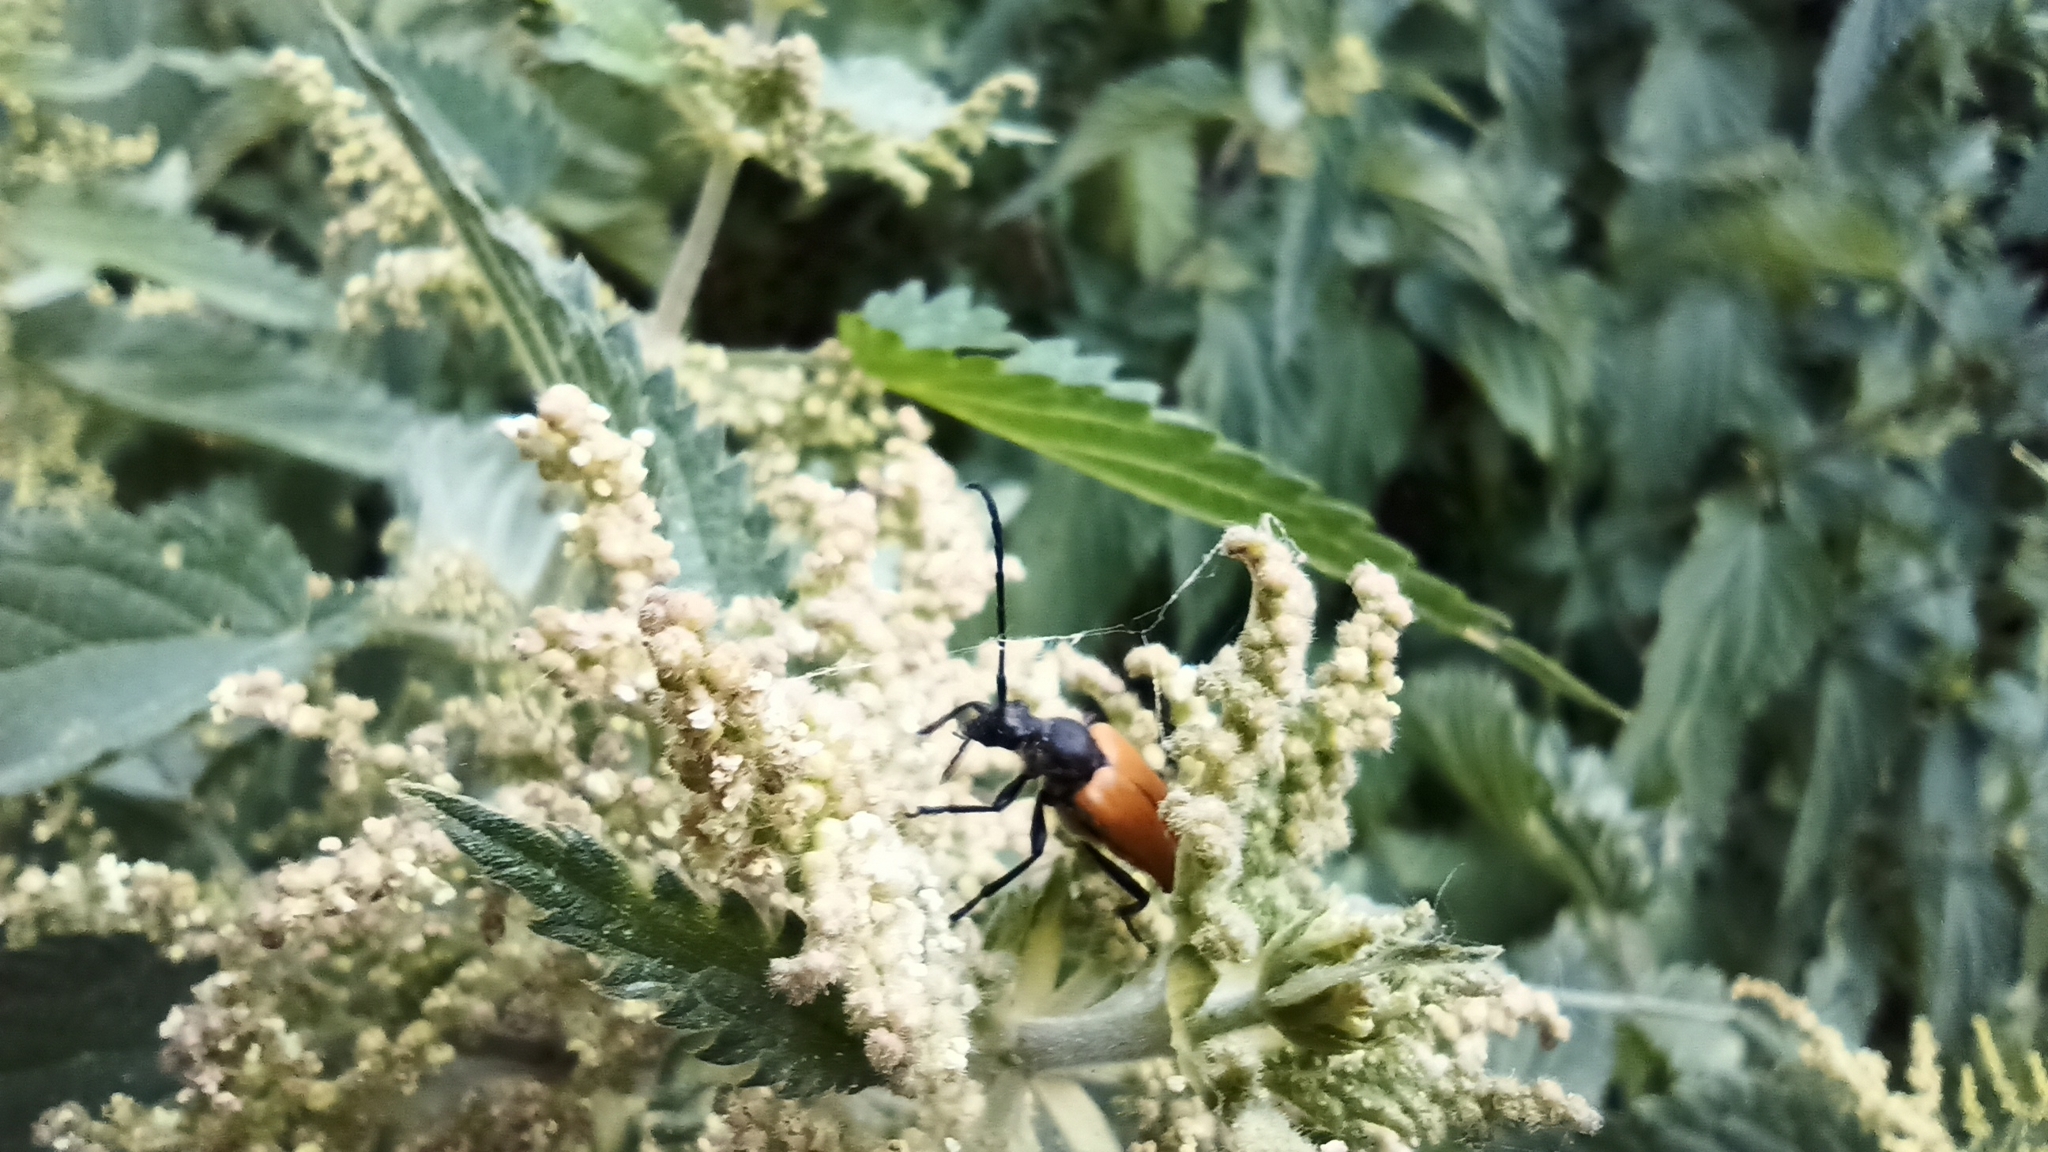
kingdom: Animalia
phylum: Arthropoda
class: Insecta
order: Coleoptera
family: Cerambycidae
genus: Paracorymbia
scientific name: Paracorymbia fulva
